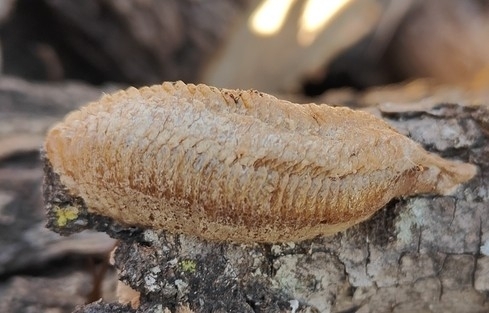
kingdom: Animalia
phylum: Arthropoda
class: Insecta
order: Mantodea
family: Mantidae
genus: Mantis
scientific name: Mantis religiosa
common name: Praying mantis
